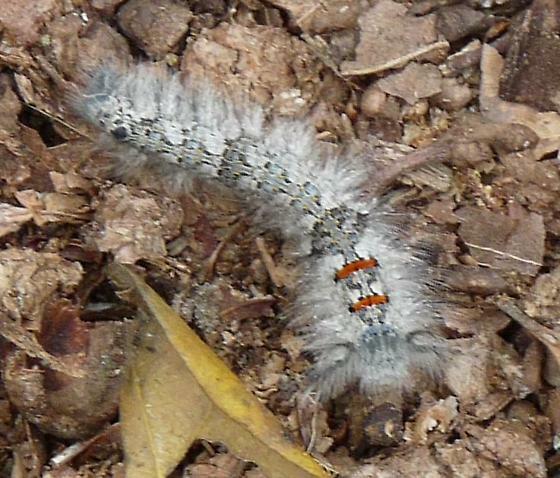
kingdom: Animalia
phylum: Arthropoda
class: Insecta
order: Lepidoptera
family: Lasiocampidae
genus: Phyllodesma
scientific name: Phyllodesma americana
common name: American lappet moth
